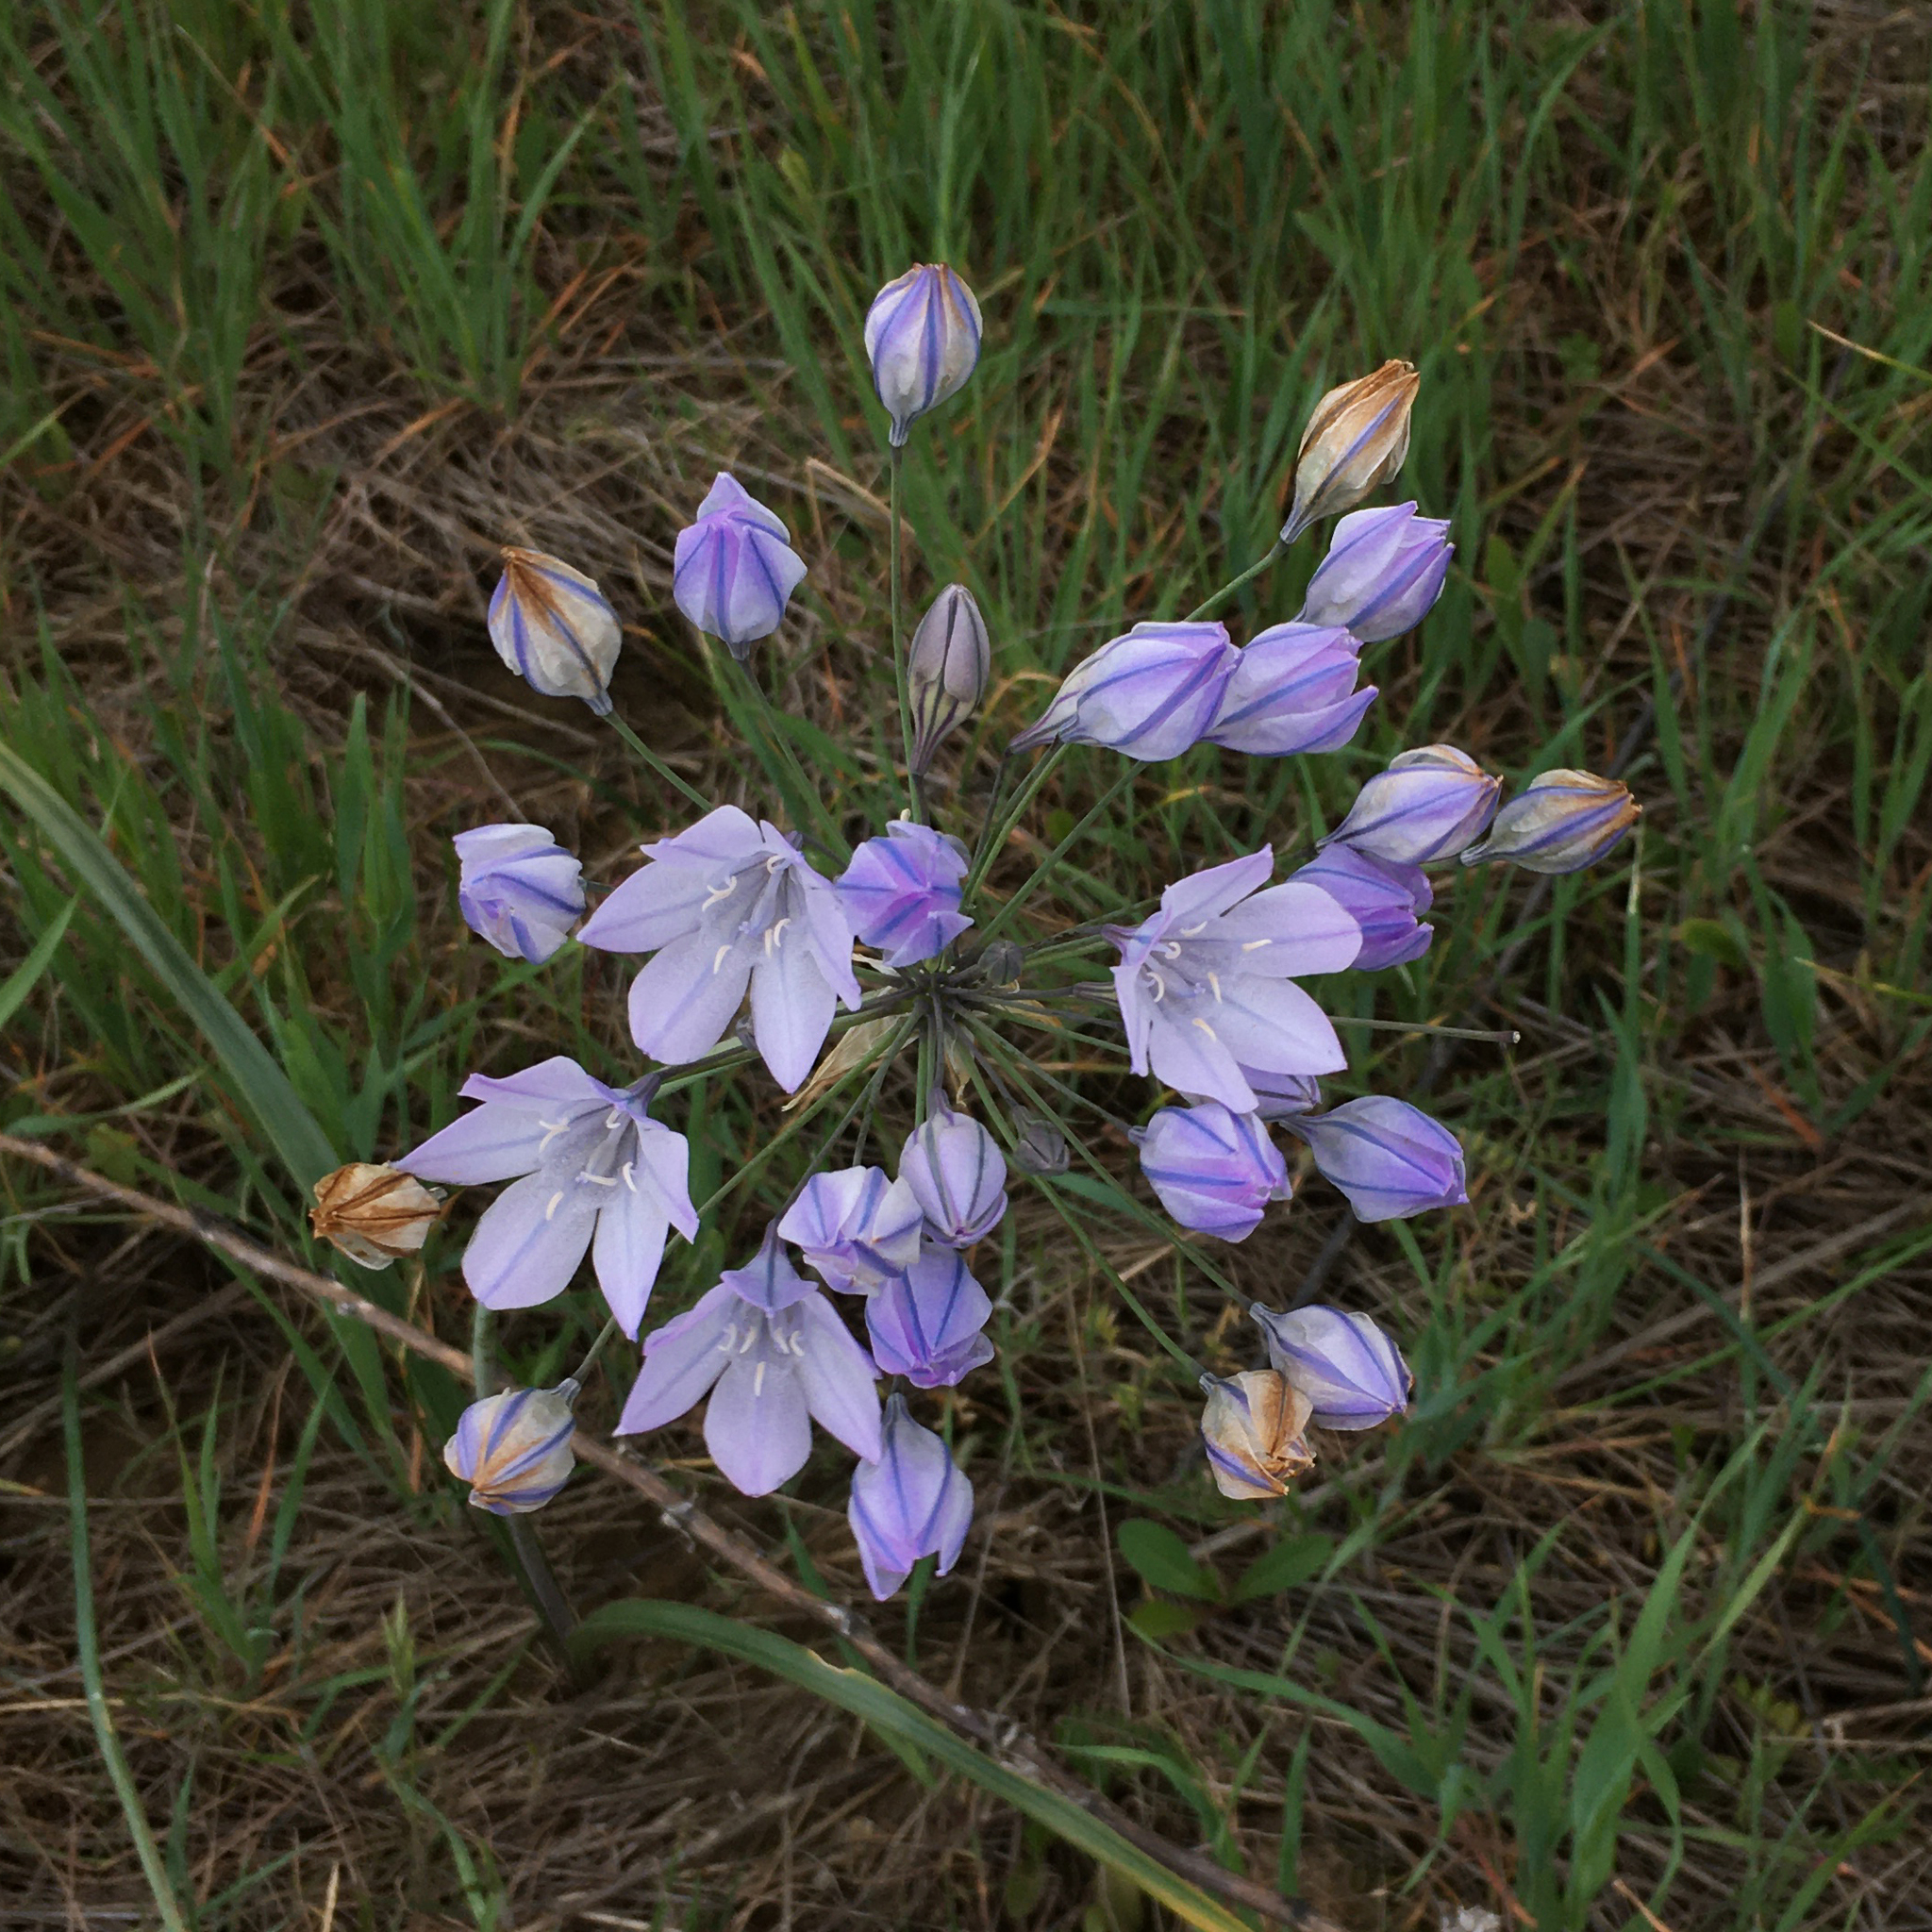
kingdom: Plantae
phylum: Tracheophyta
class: Liliopsida
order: Asparagales
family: Asparagaceae
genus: Triteleia
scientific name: Triteleia laxa
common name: Triplet-lily
